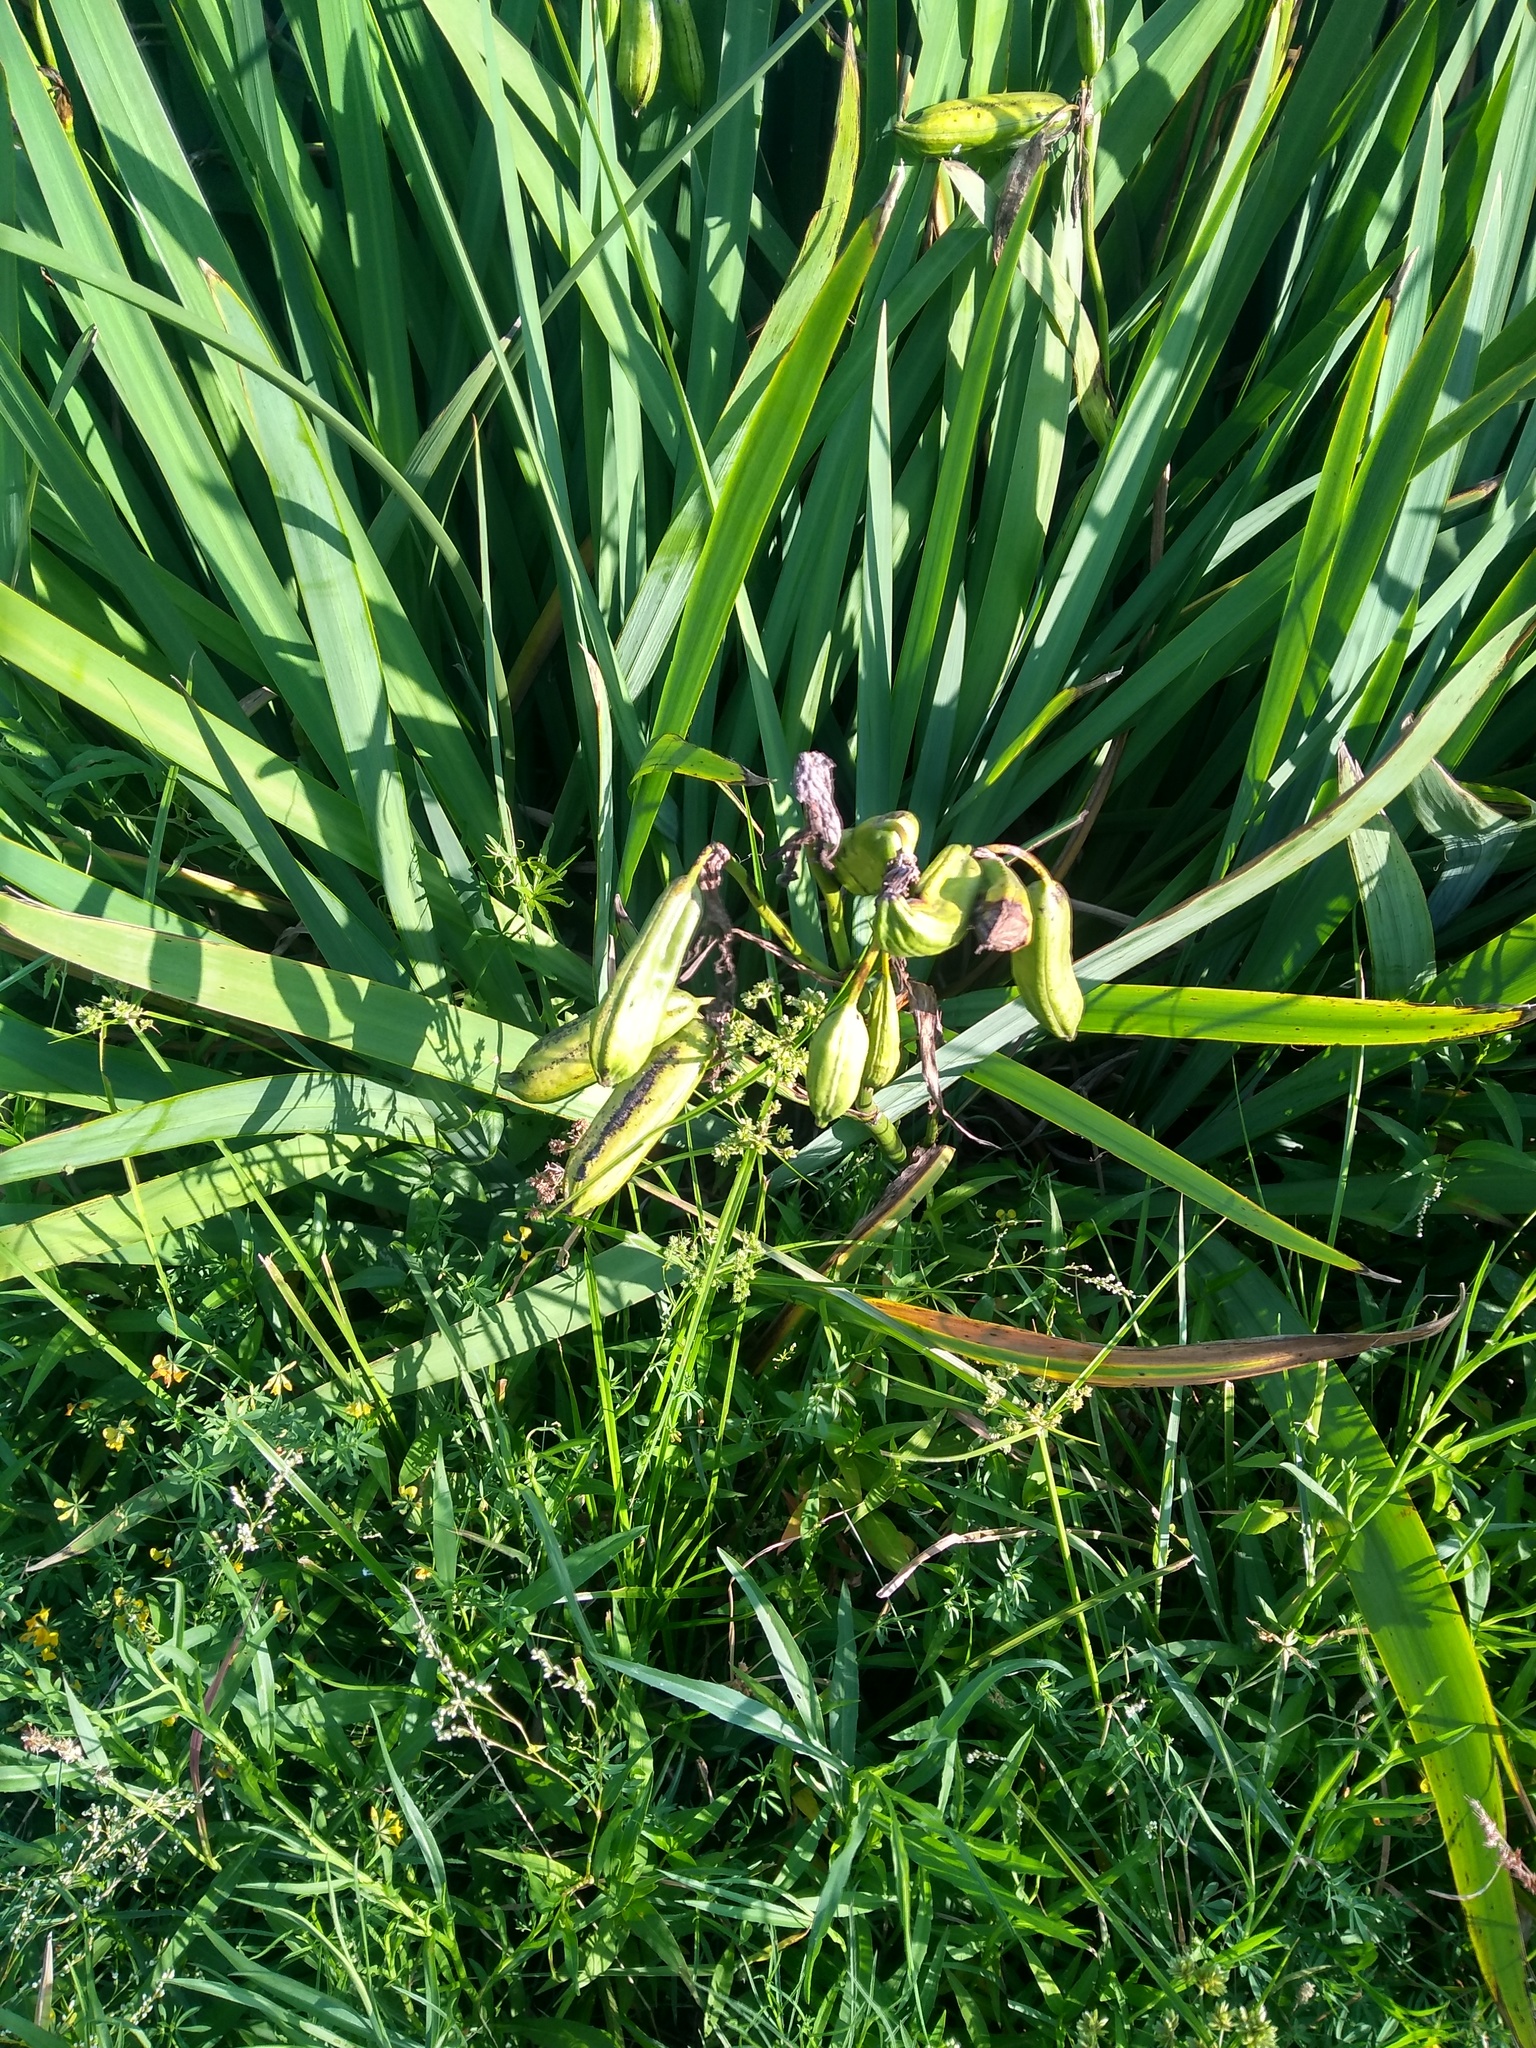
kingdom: Plantae
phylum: Tracheophyta
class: Liliopsida
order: Asparagales
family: Iridaceae
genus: Iris
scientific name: Iris pseudacorus
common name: Yellow flag
